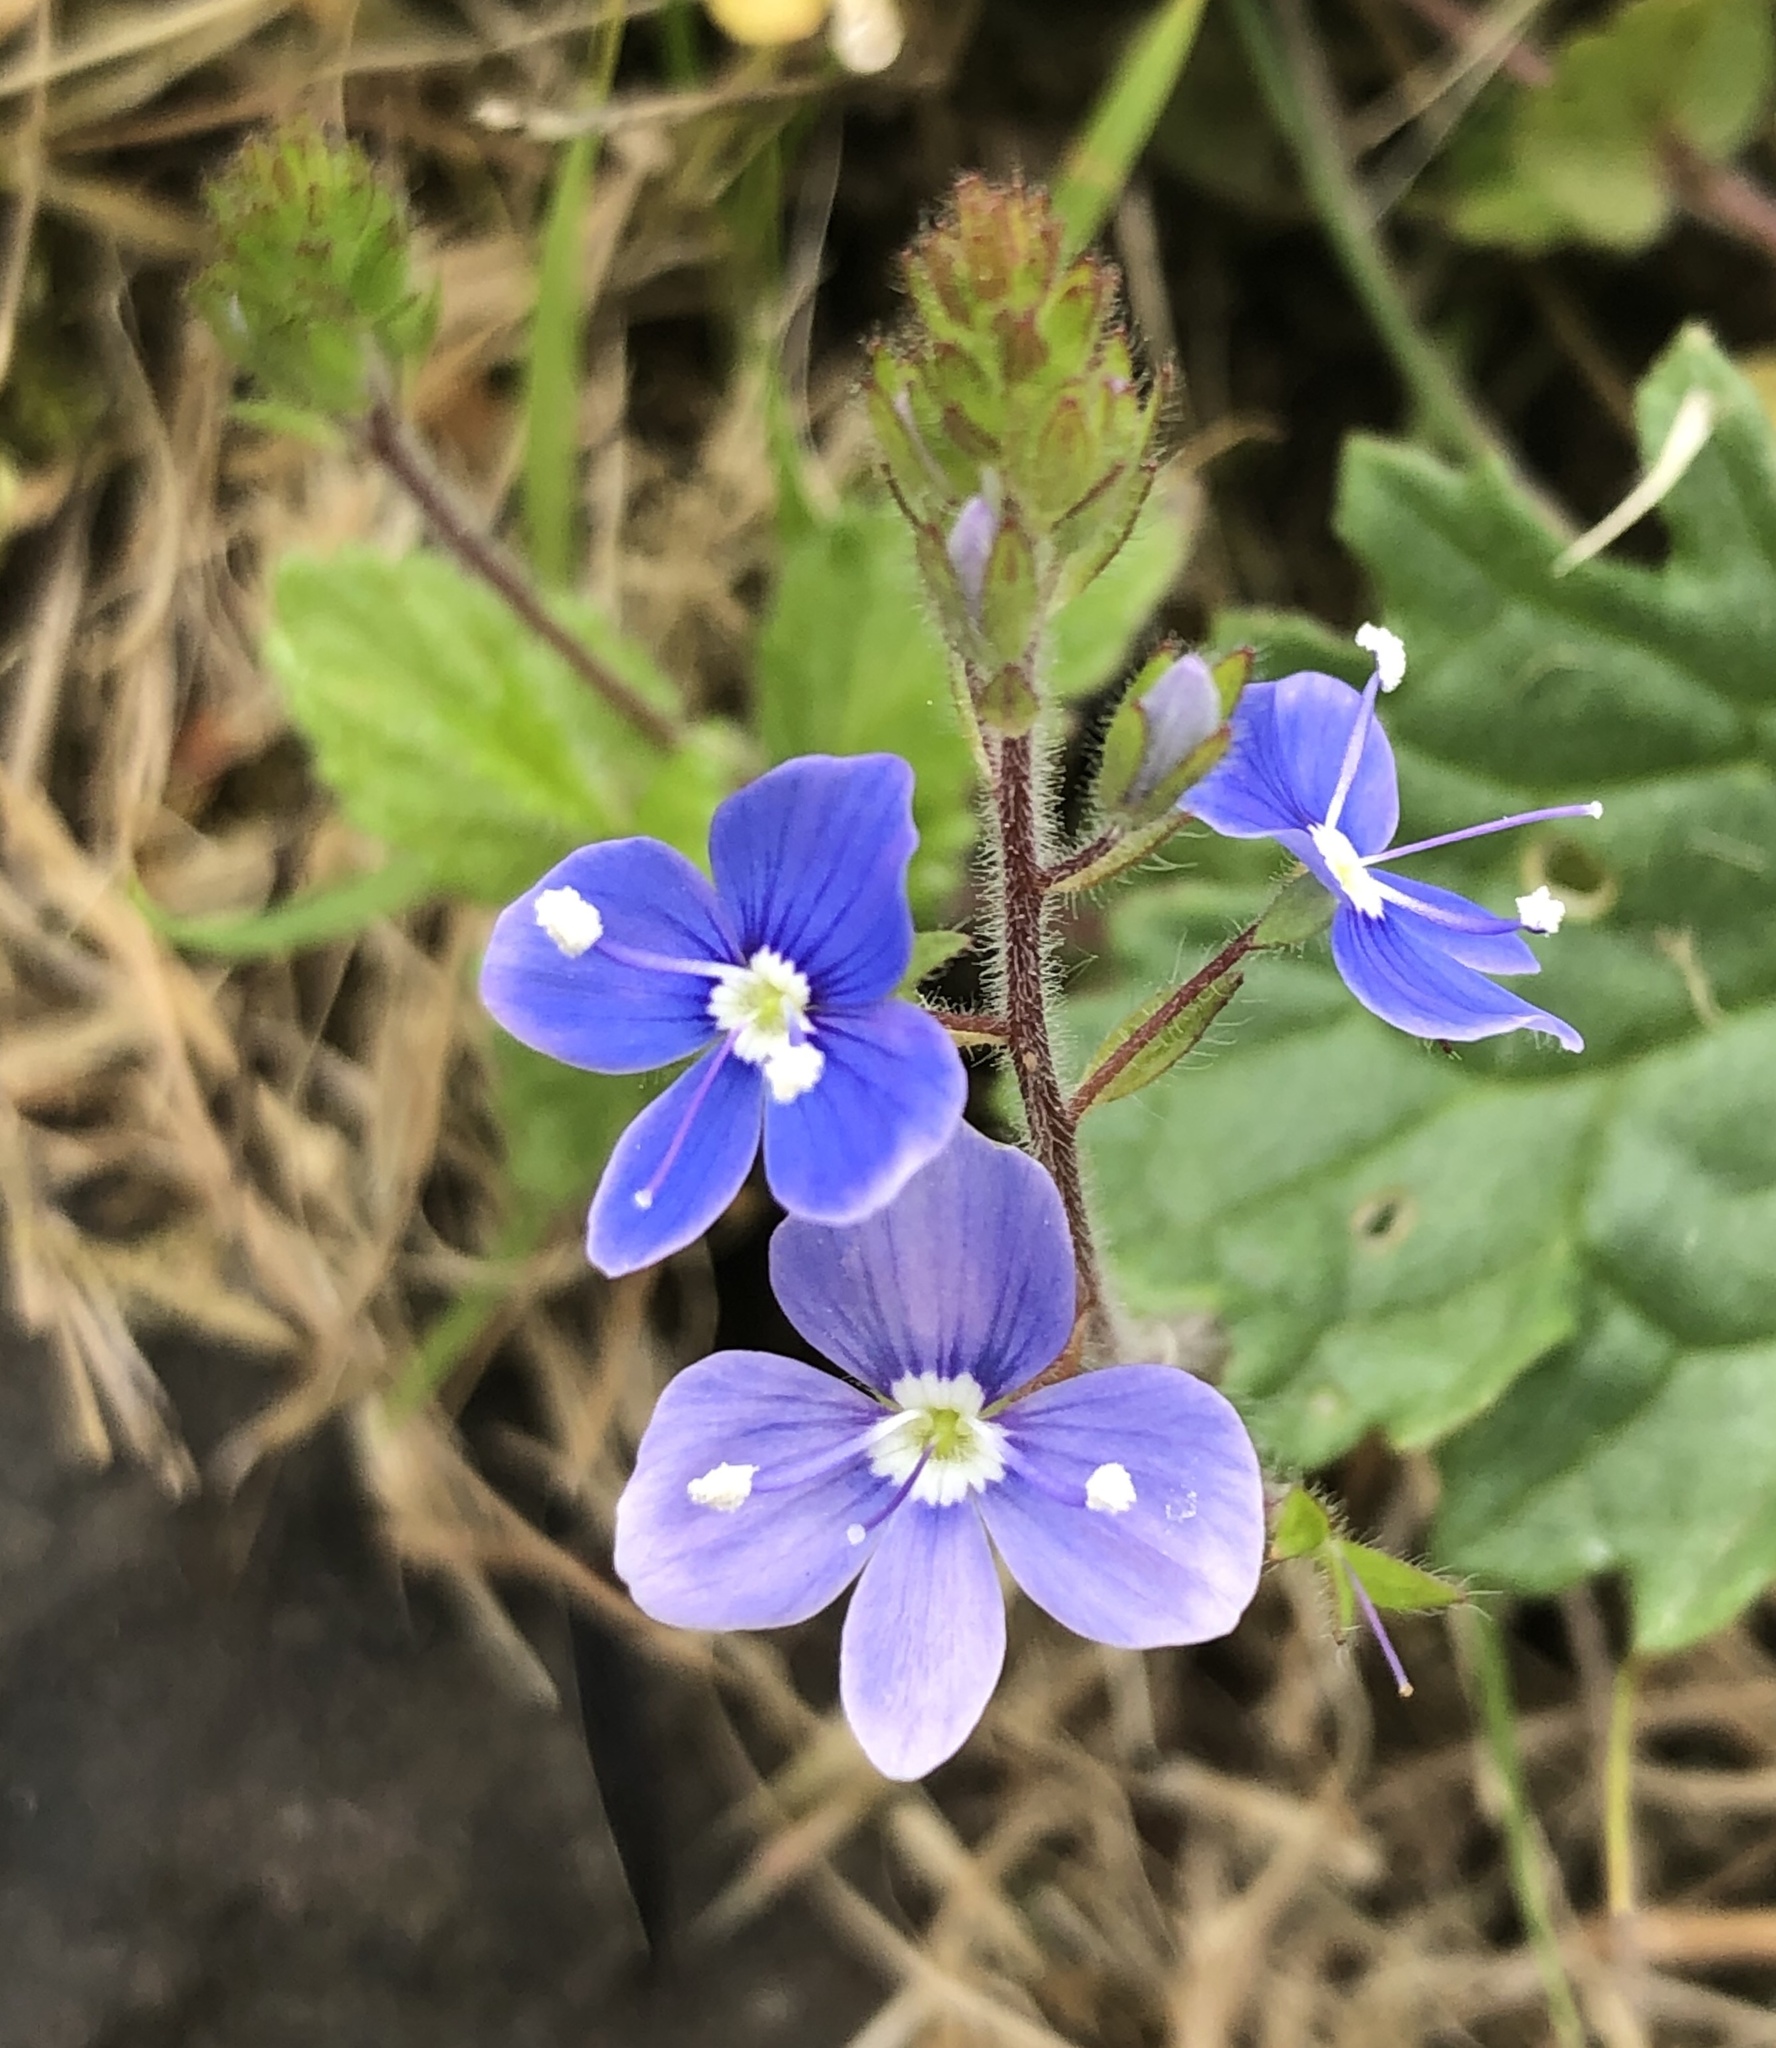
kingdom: Plantae
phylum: Tracheophyta
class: Magnoliopsida
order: Lamiales
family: Plantaginaceae
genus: Veronica
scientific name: Veronica chamaedrys
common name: Germander speedwell
